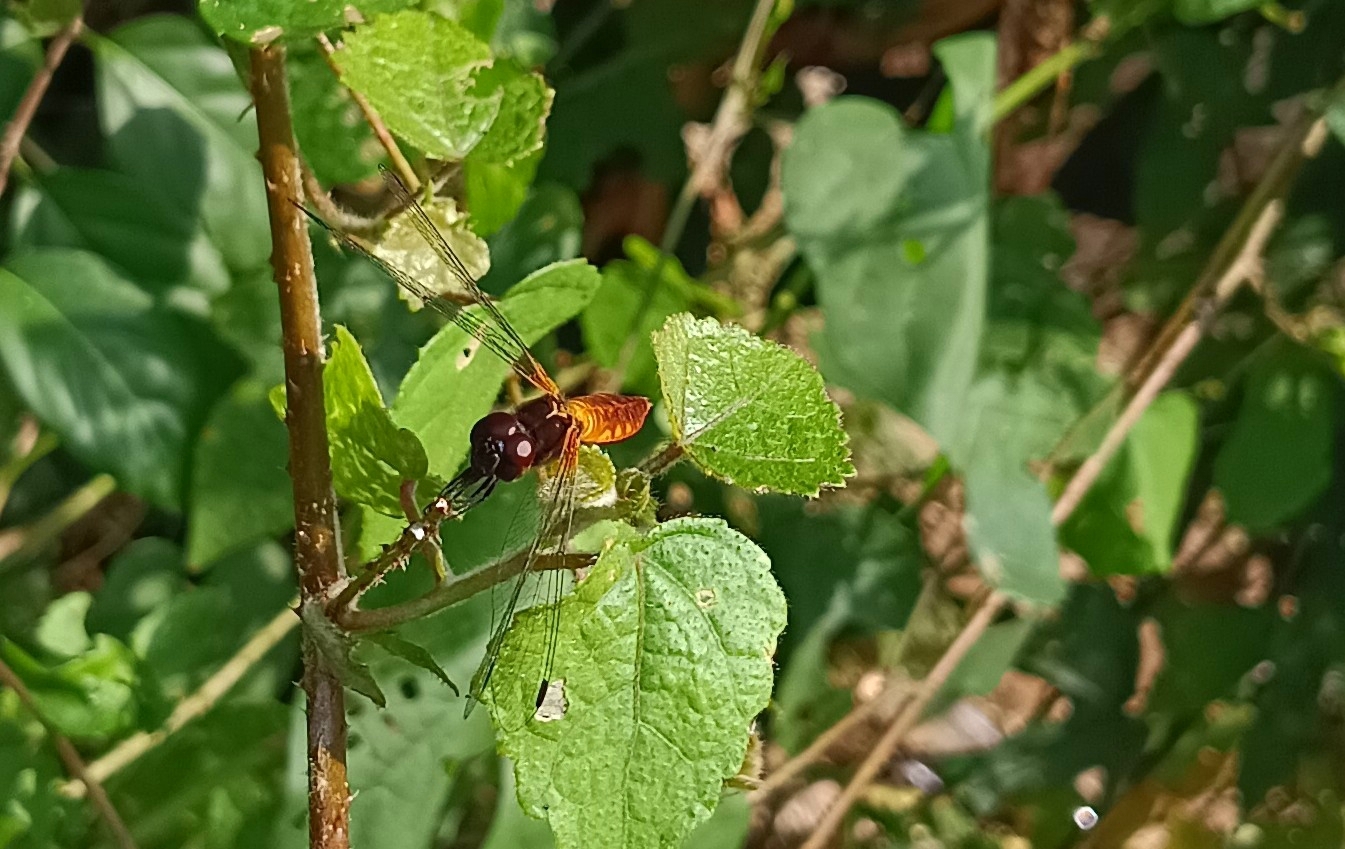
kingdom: Animalia
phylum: Arthropoda
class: Insecta
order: Odonata
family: Libellulidae
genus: Aethriamanta
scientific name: Aethriamanta brevipennis
